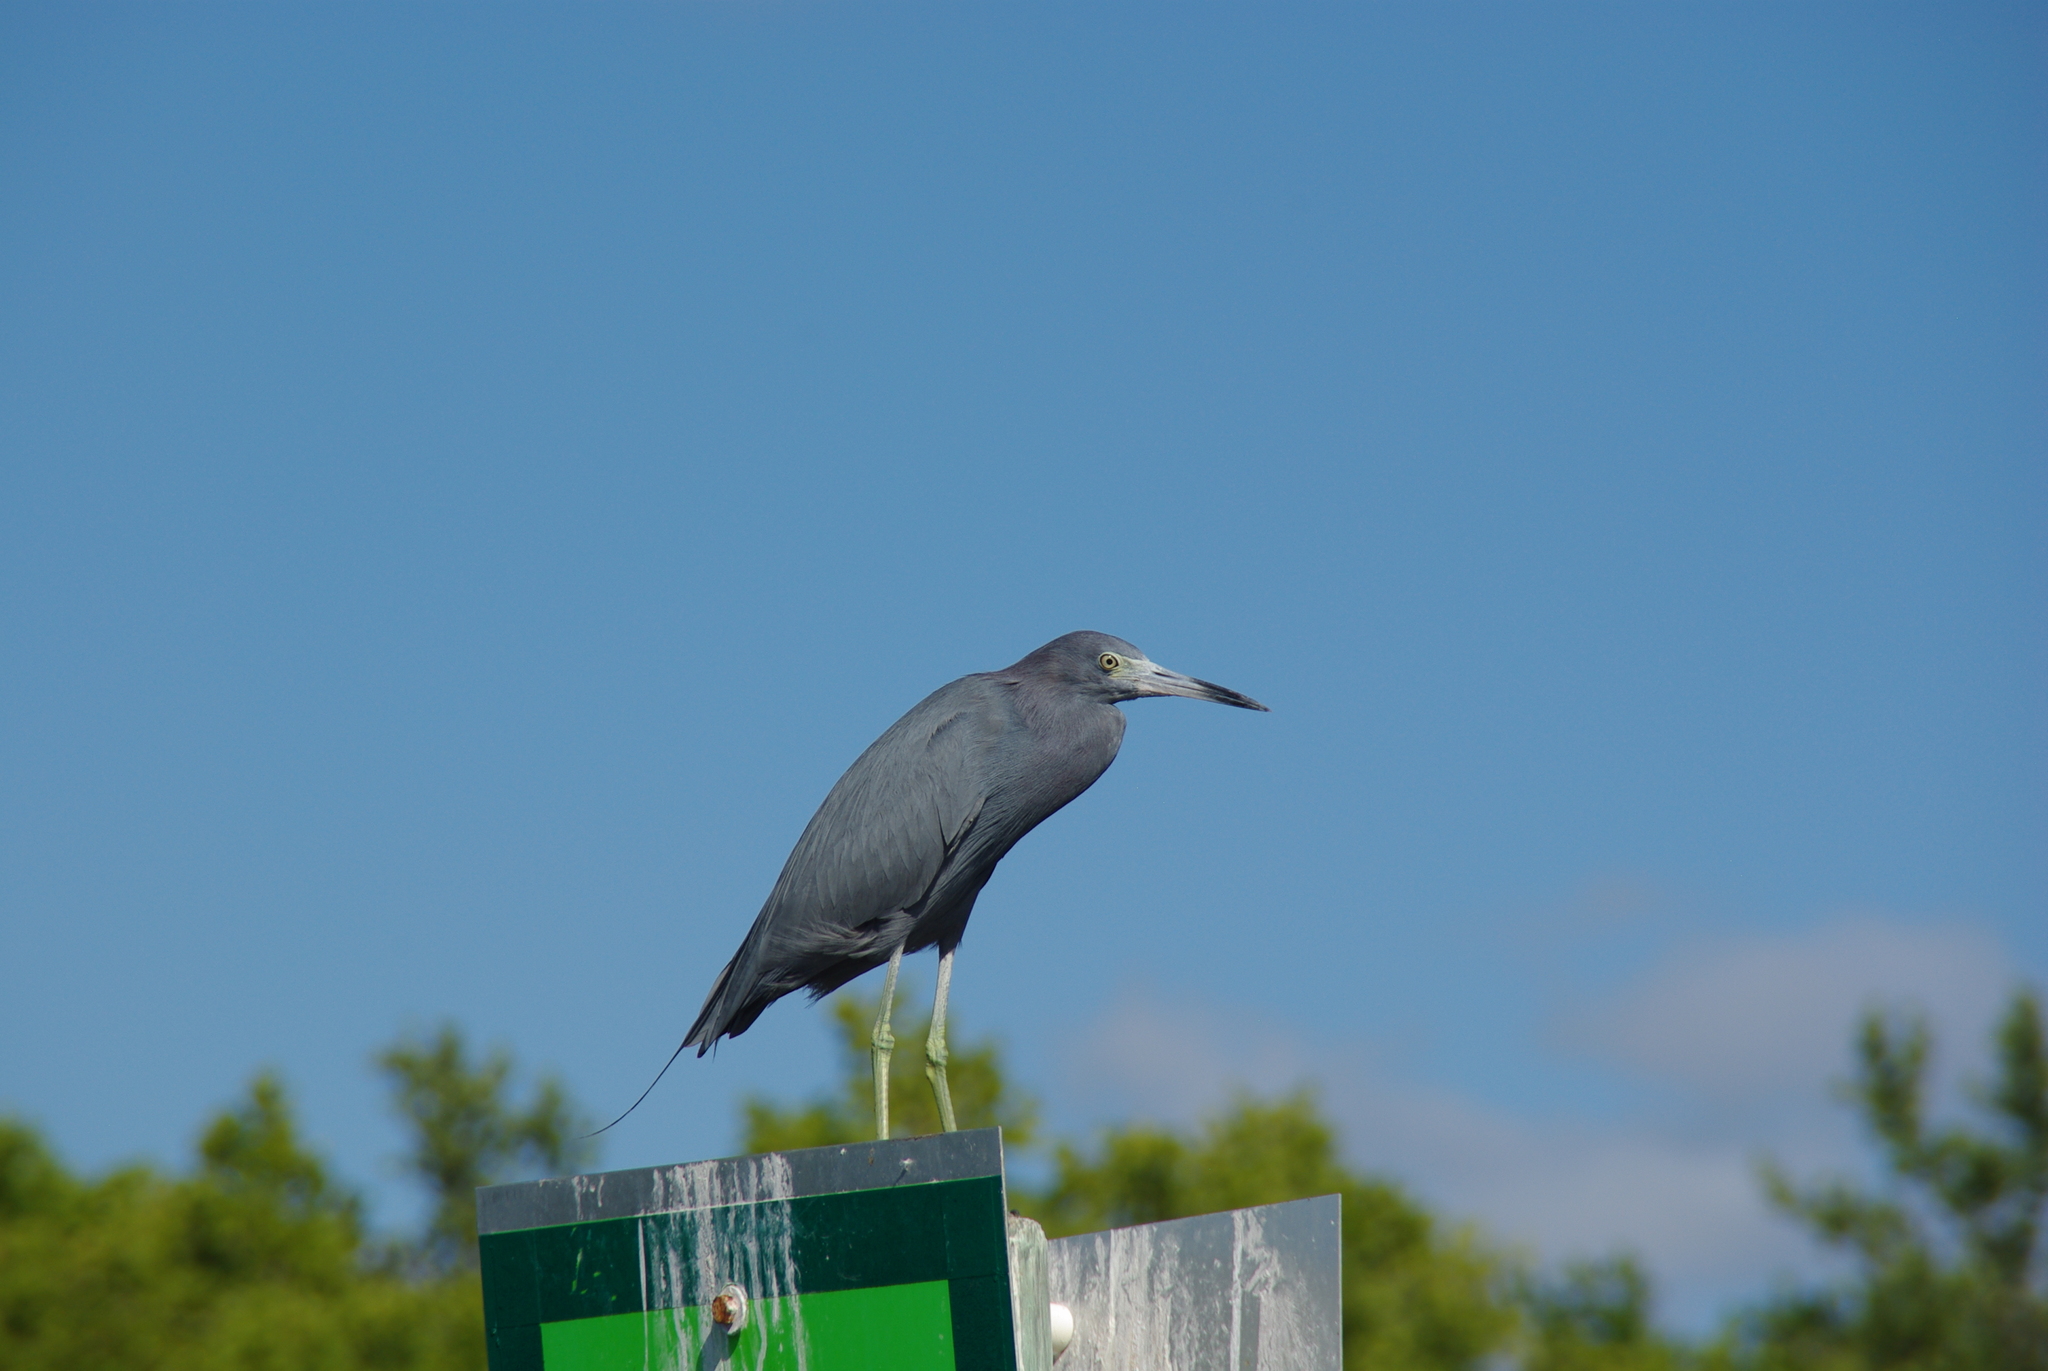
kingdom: Animalia
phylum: Chordata
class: Aves
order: Pelecaniformes
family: Ardeidae
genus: Egretta
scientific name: Egretta caerulea
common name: Little blue heron
